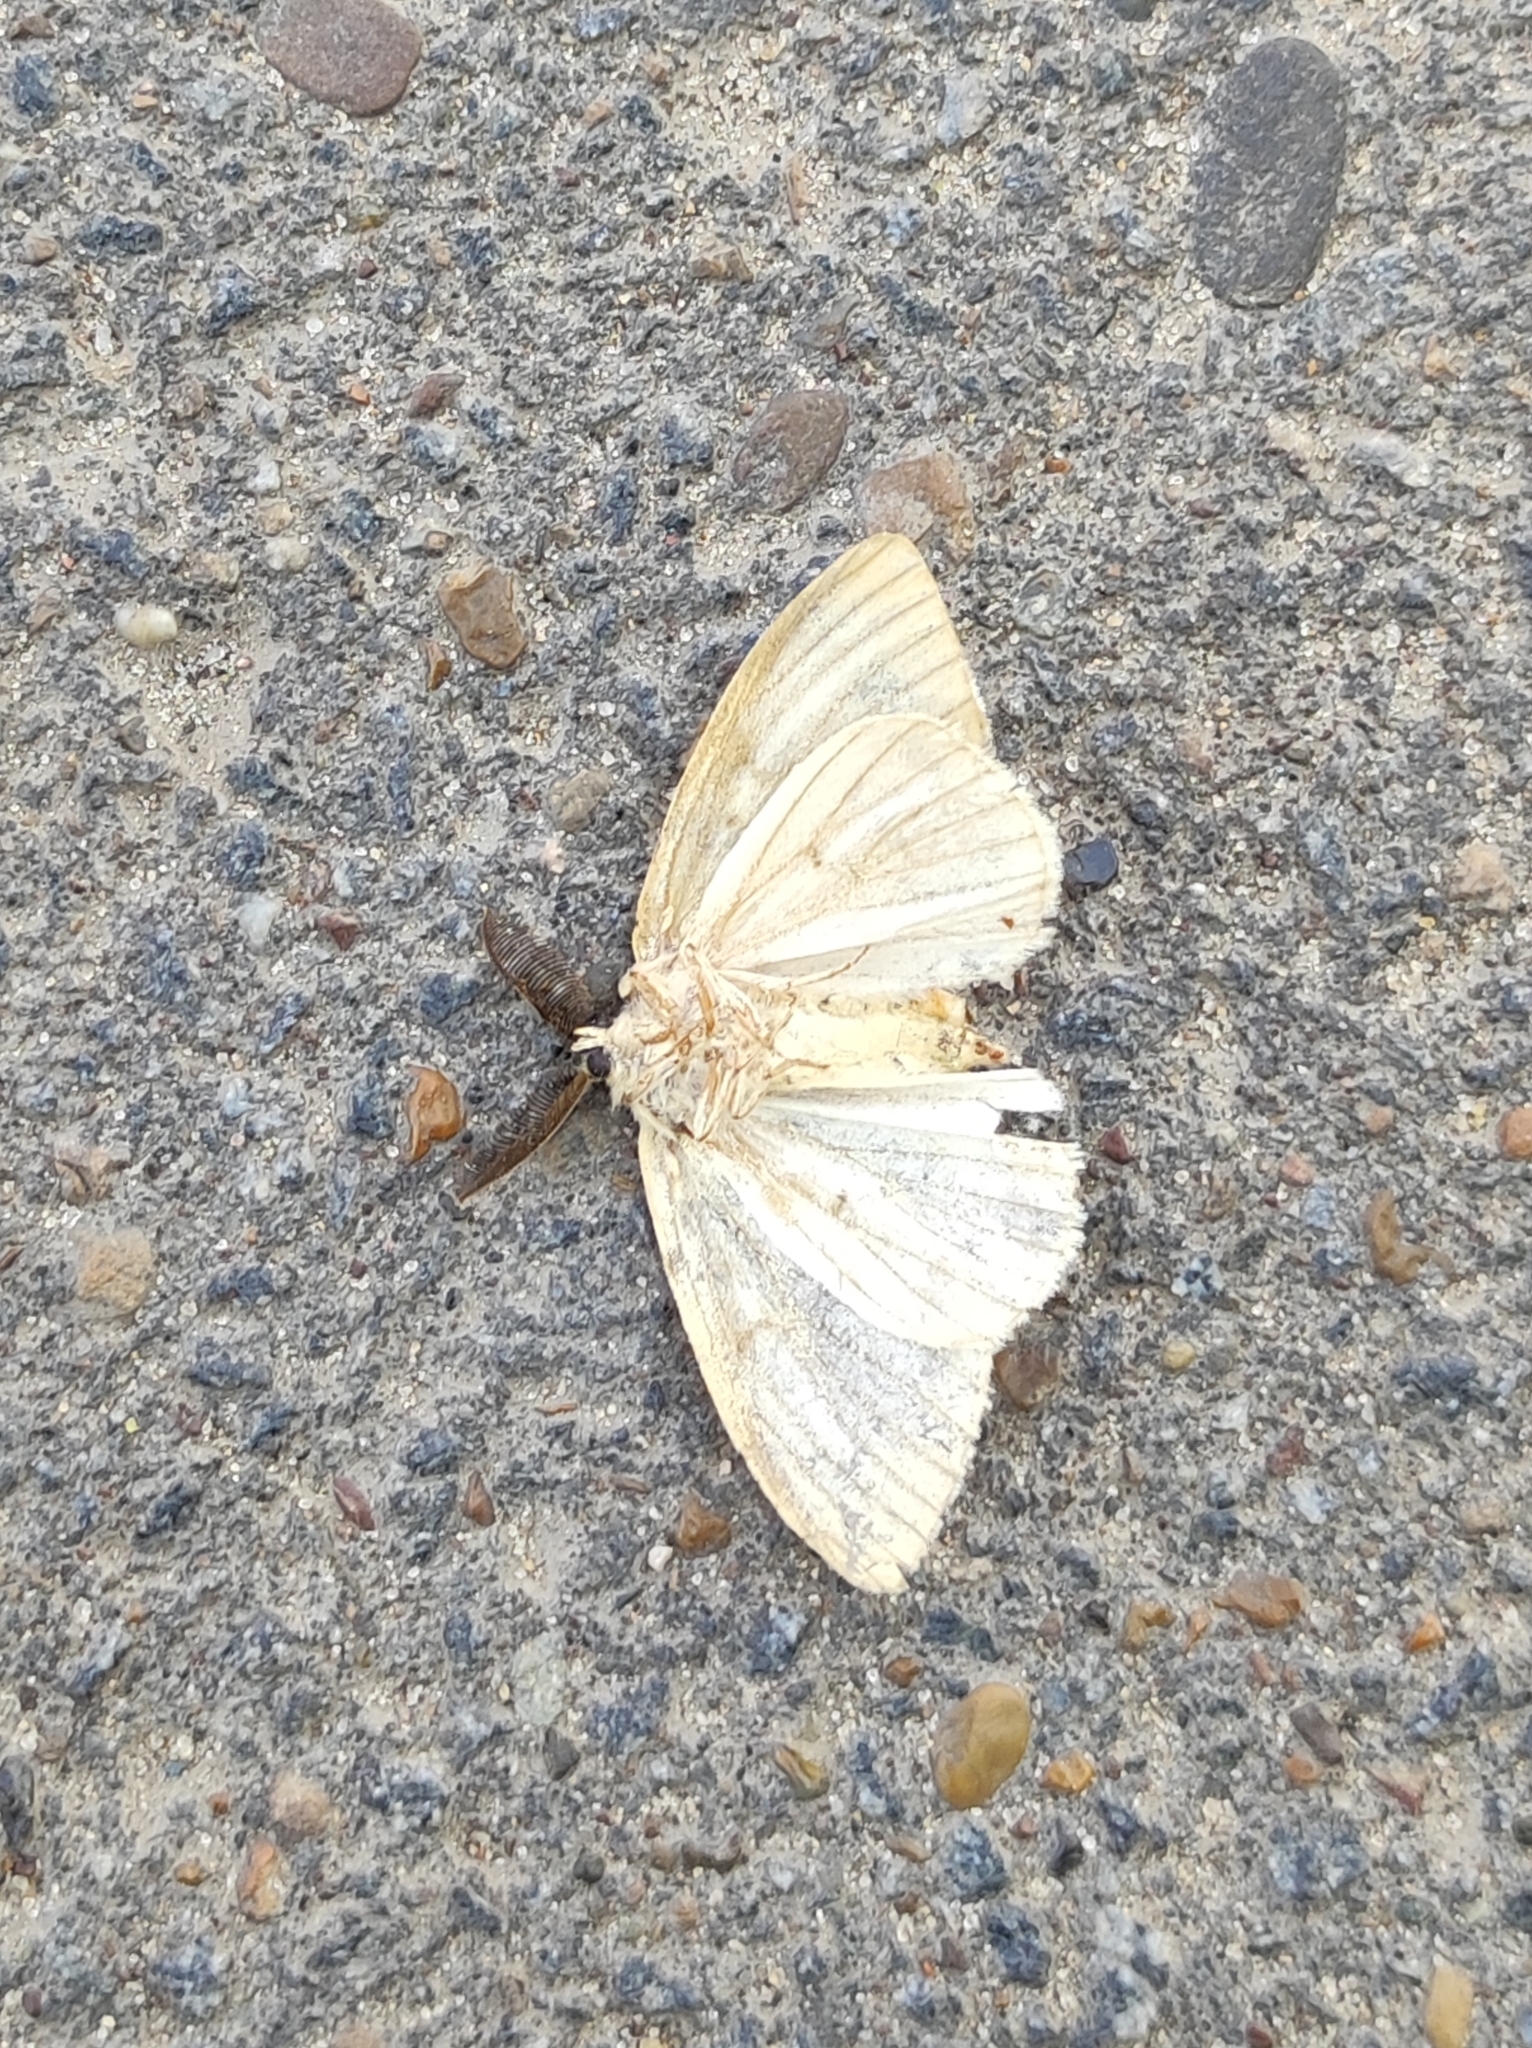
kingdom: Animalia
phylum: Arthropoda
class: Insecta
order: Lepidoptera
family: Erebidae
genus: Lymantria
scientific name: Lymantria dispar
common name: Gypsy moth
